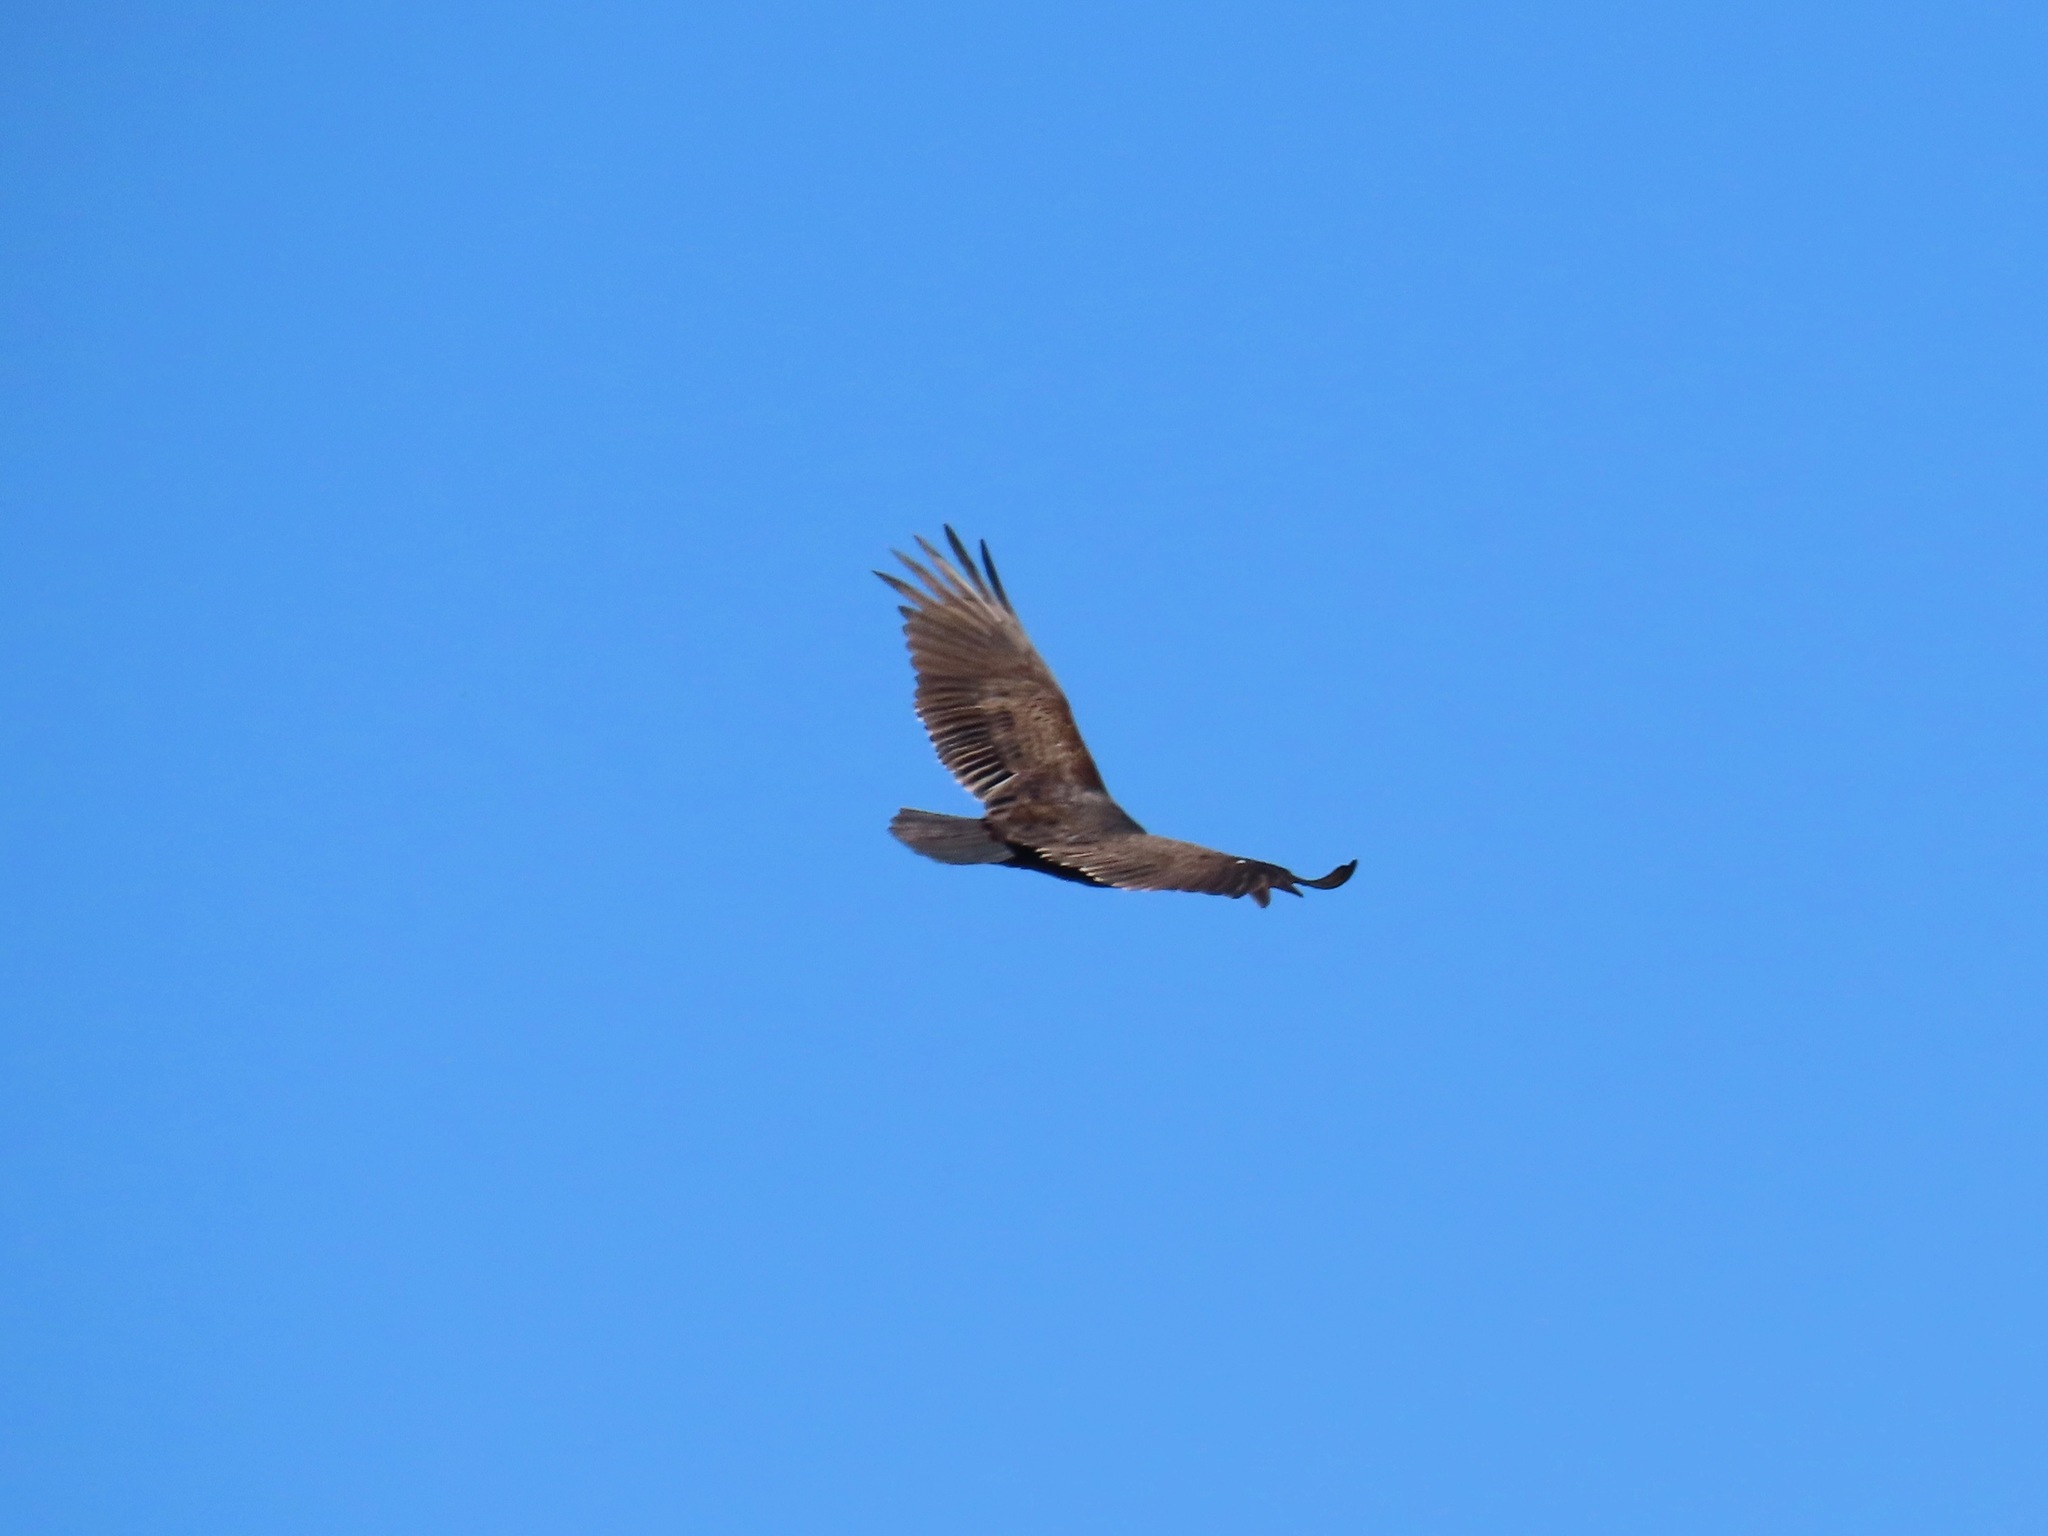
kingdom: Animalia
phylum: Chordata
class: Aves
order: Accipitriformes
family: Cathartidae
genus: Cathartes
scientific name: Cathartes aura
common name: Turkey vulture
